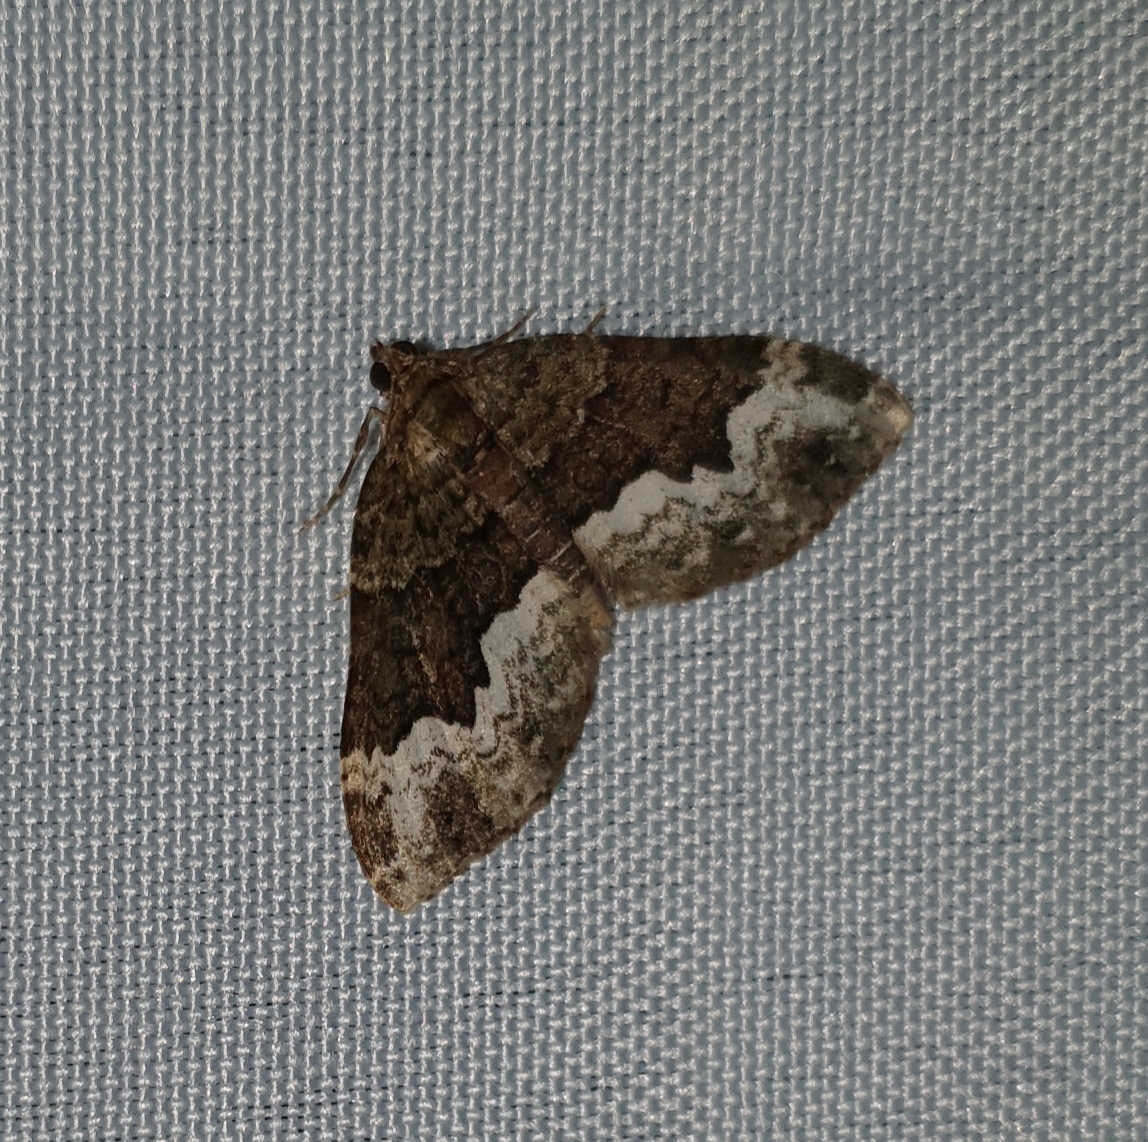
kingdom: Animalia
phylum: Arthropoda
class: Insecta
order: Lepidoptera
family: Geometridae
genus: Euphyia
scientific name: Euphyia biangulata
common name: Cloaked carpet
